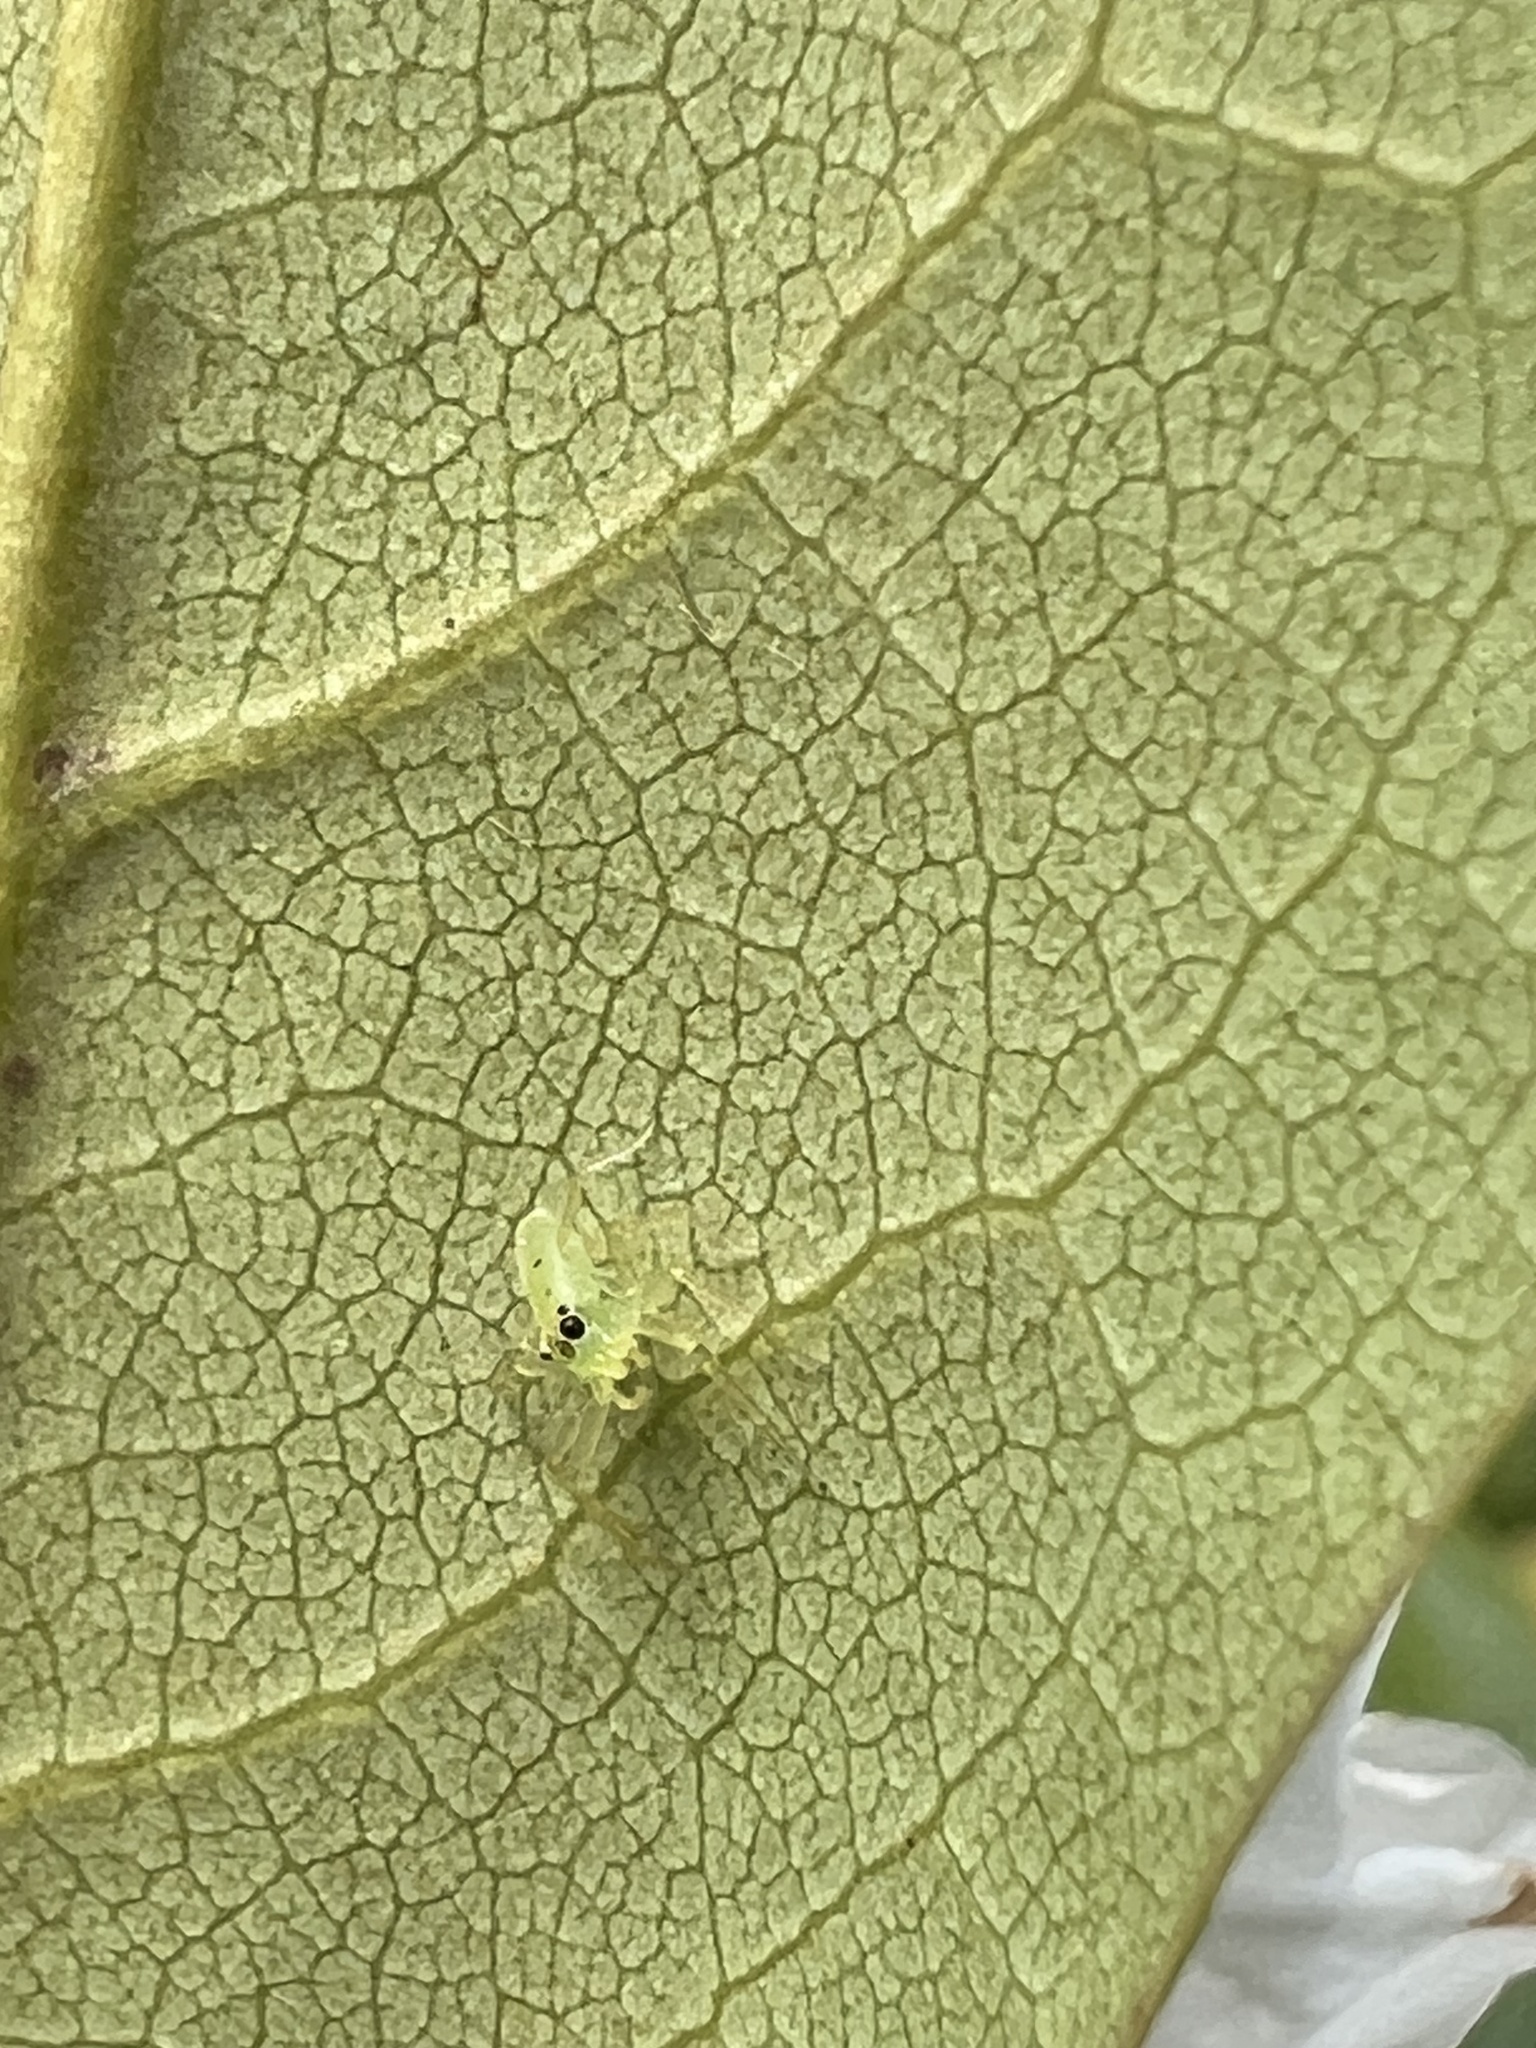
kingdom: Animalia
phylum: Arthropoda
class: Arachnida
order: Araneae
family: Salticidae
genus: Lyssomanes
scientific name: Lyssomanes viridis
